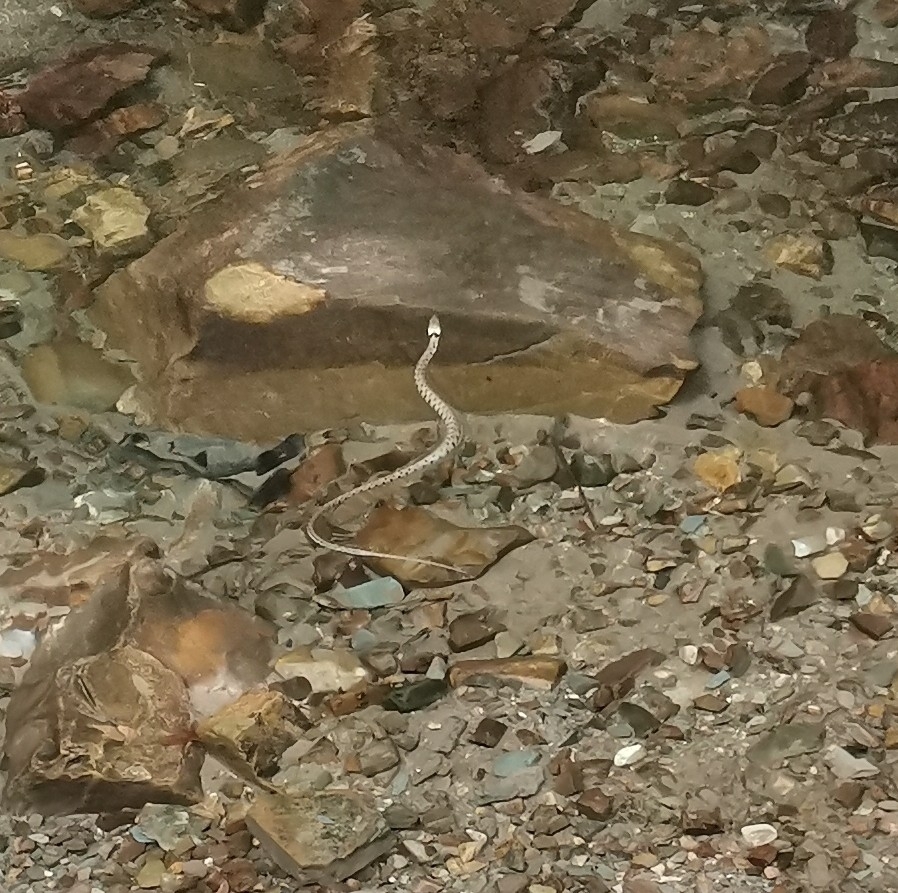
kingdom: Animalia
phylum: Chordata
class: Squamata
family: Colubridae
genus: Natrix
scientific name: Natrix helvetica
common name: Banded grass snake
